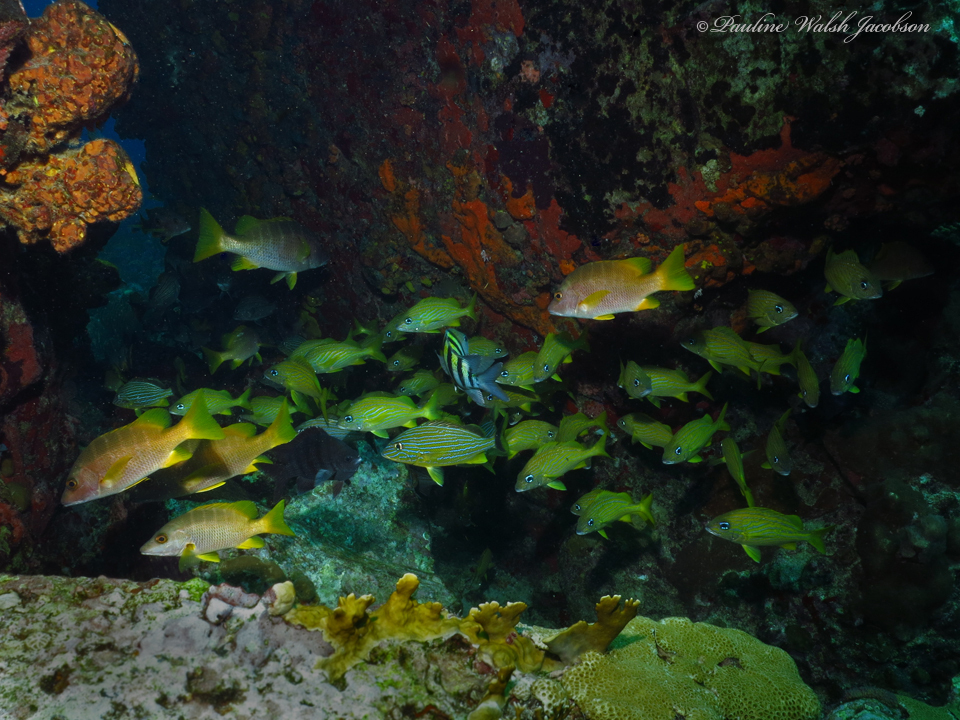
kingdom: Animalia
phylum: Chordata
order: Perciformes
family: Lutjanidae
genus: Lutjanus
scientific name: Lutjanus apodus
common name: Schoolmaster
